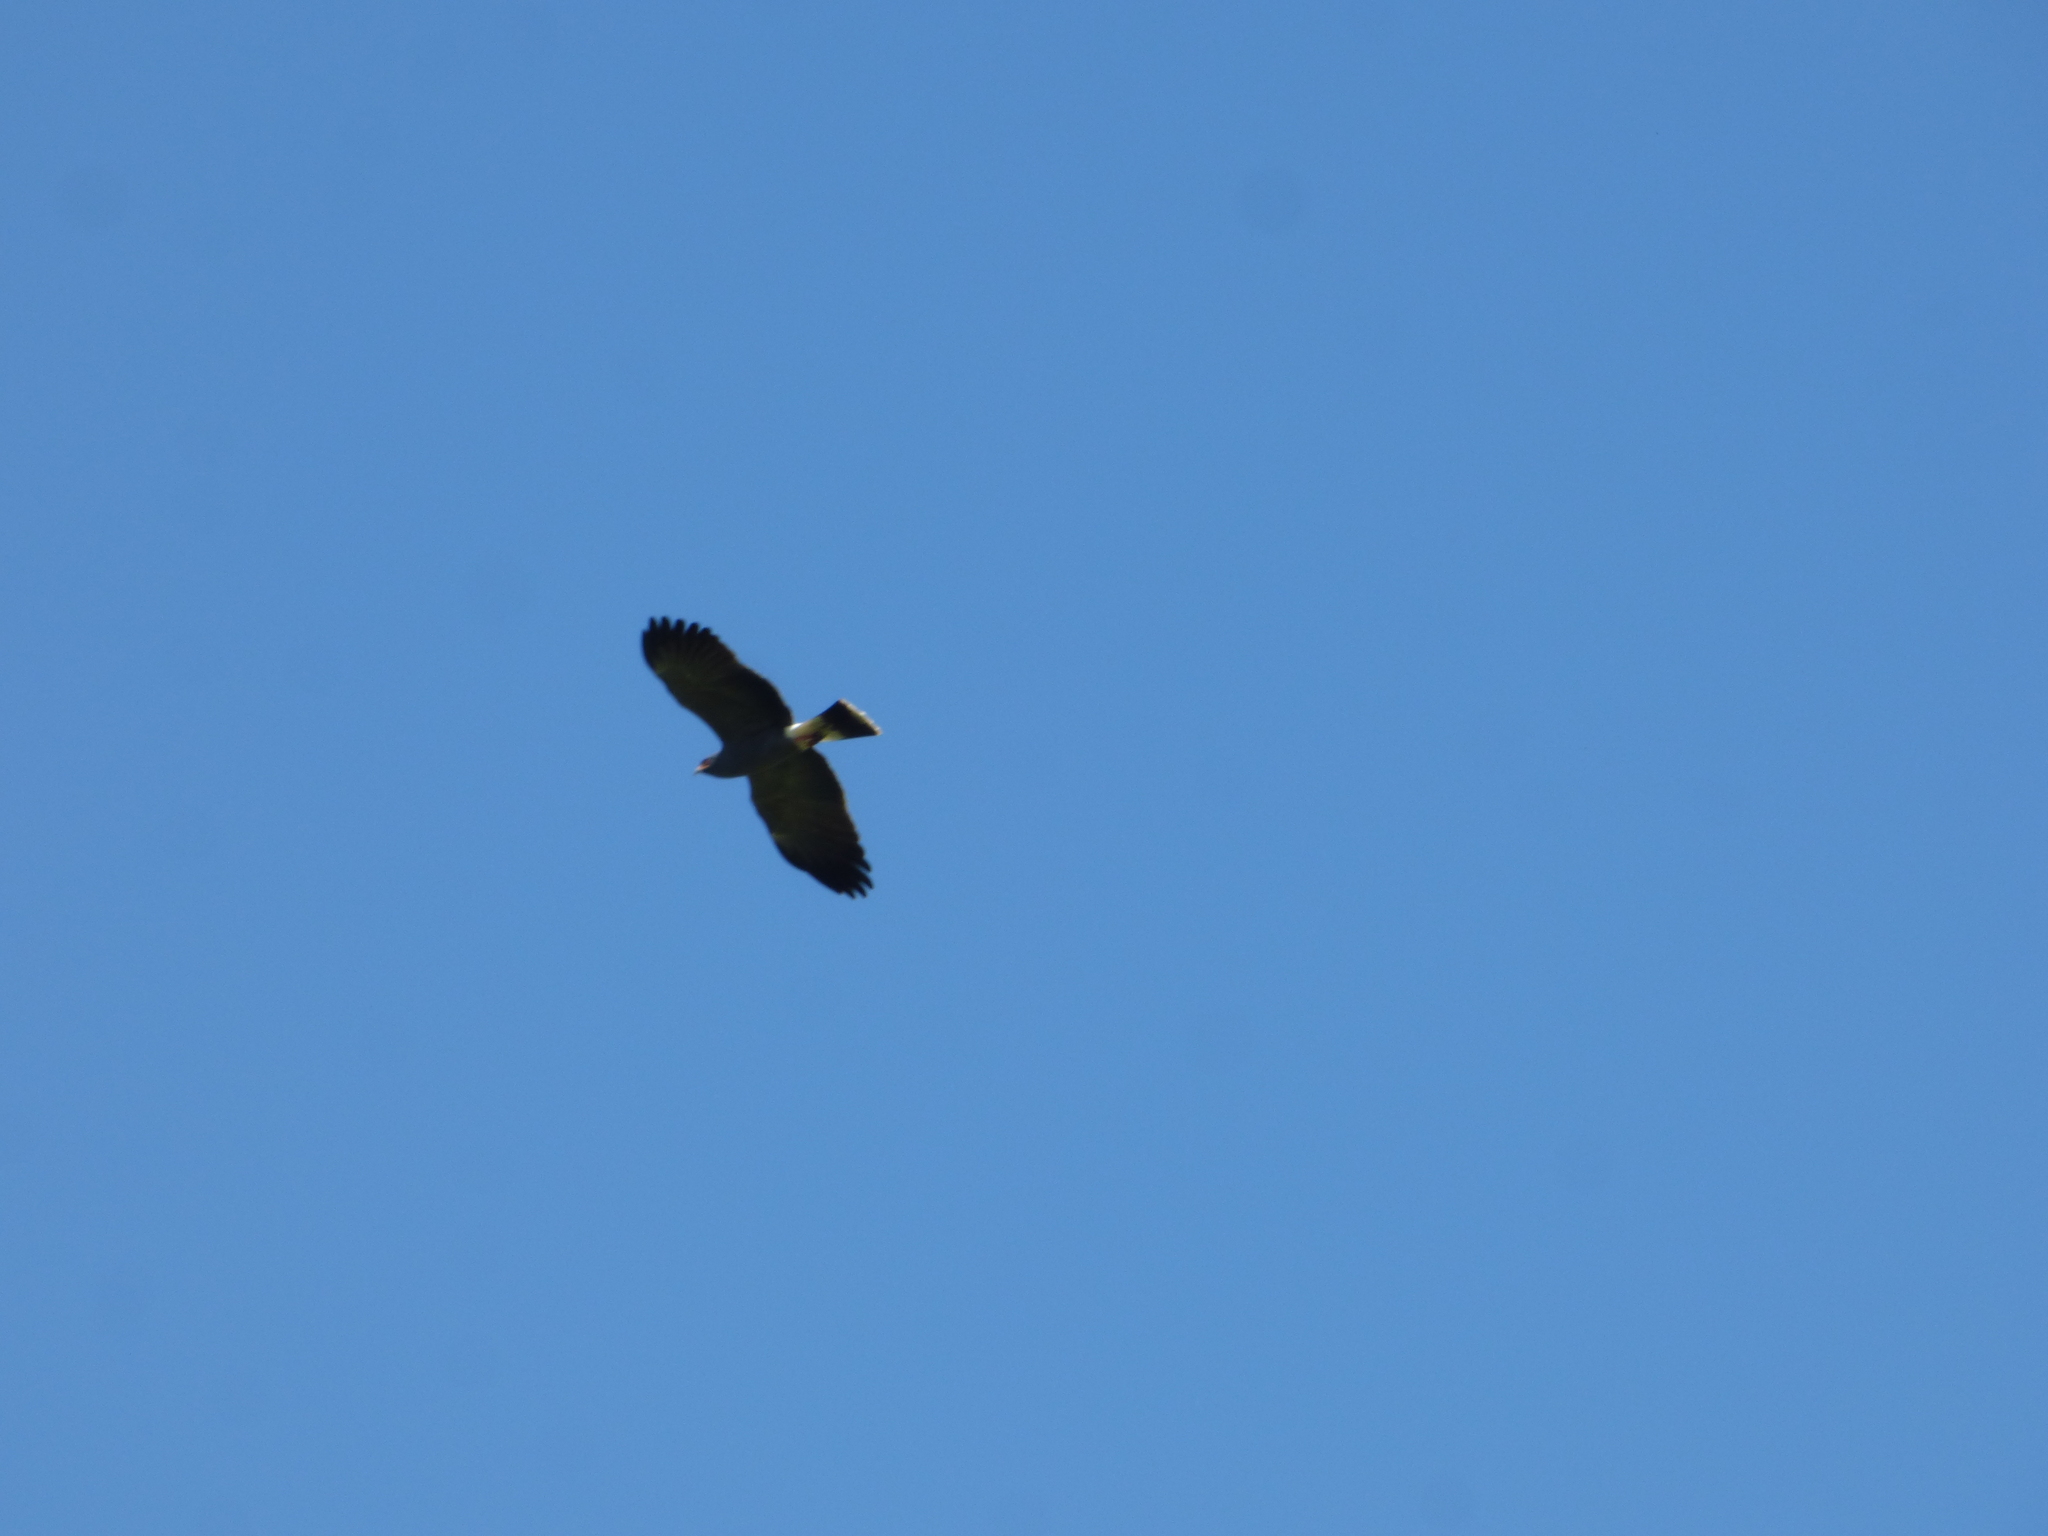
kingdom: Animalia
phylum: Chordata
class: Aves
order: Accipitriformes
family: Accipitridae
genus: Rostrhamus
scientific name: Rostrhamus sociabilis
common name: Snail kite
